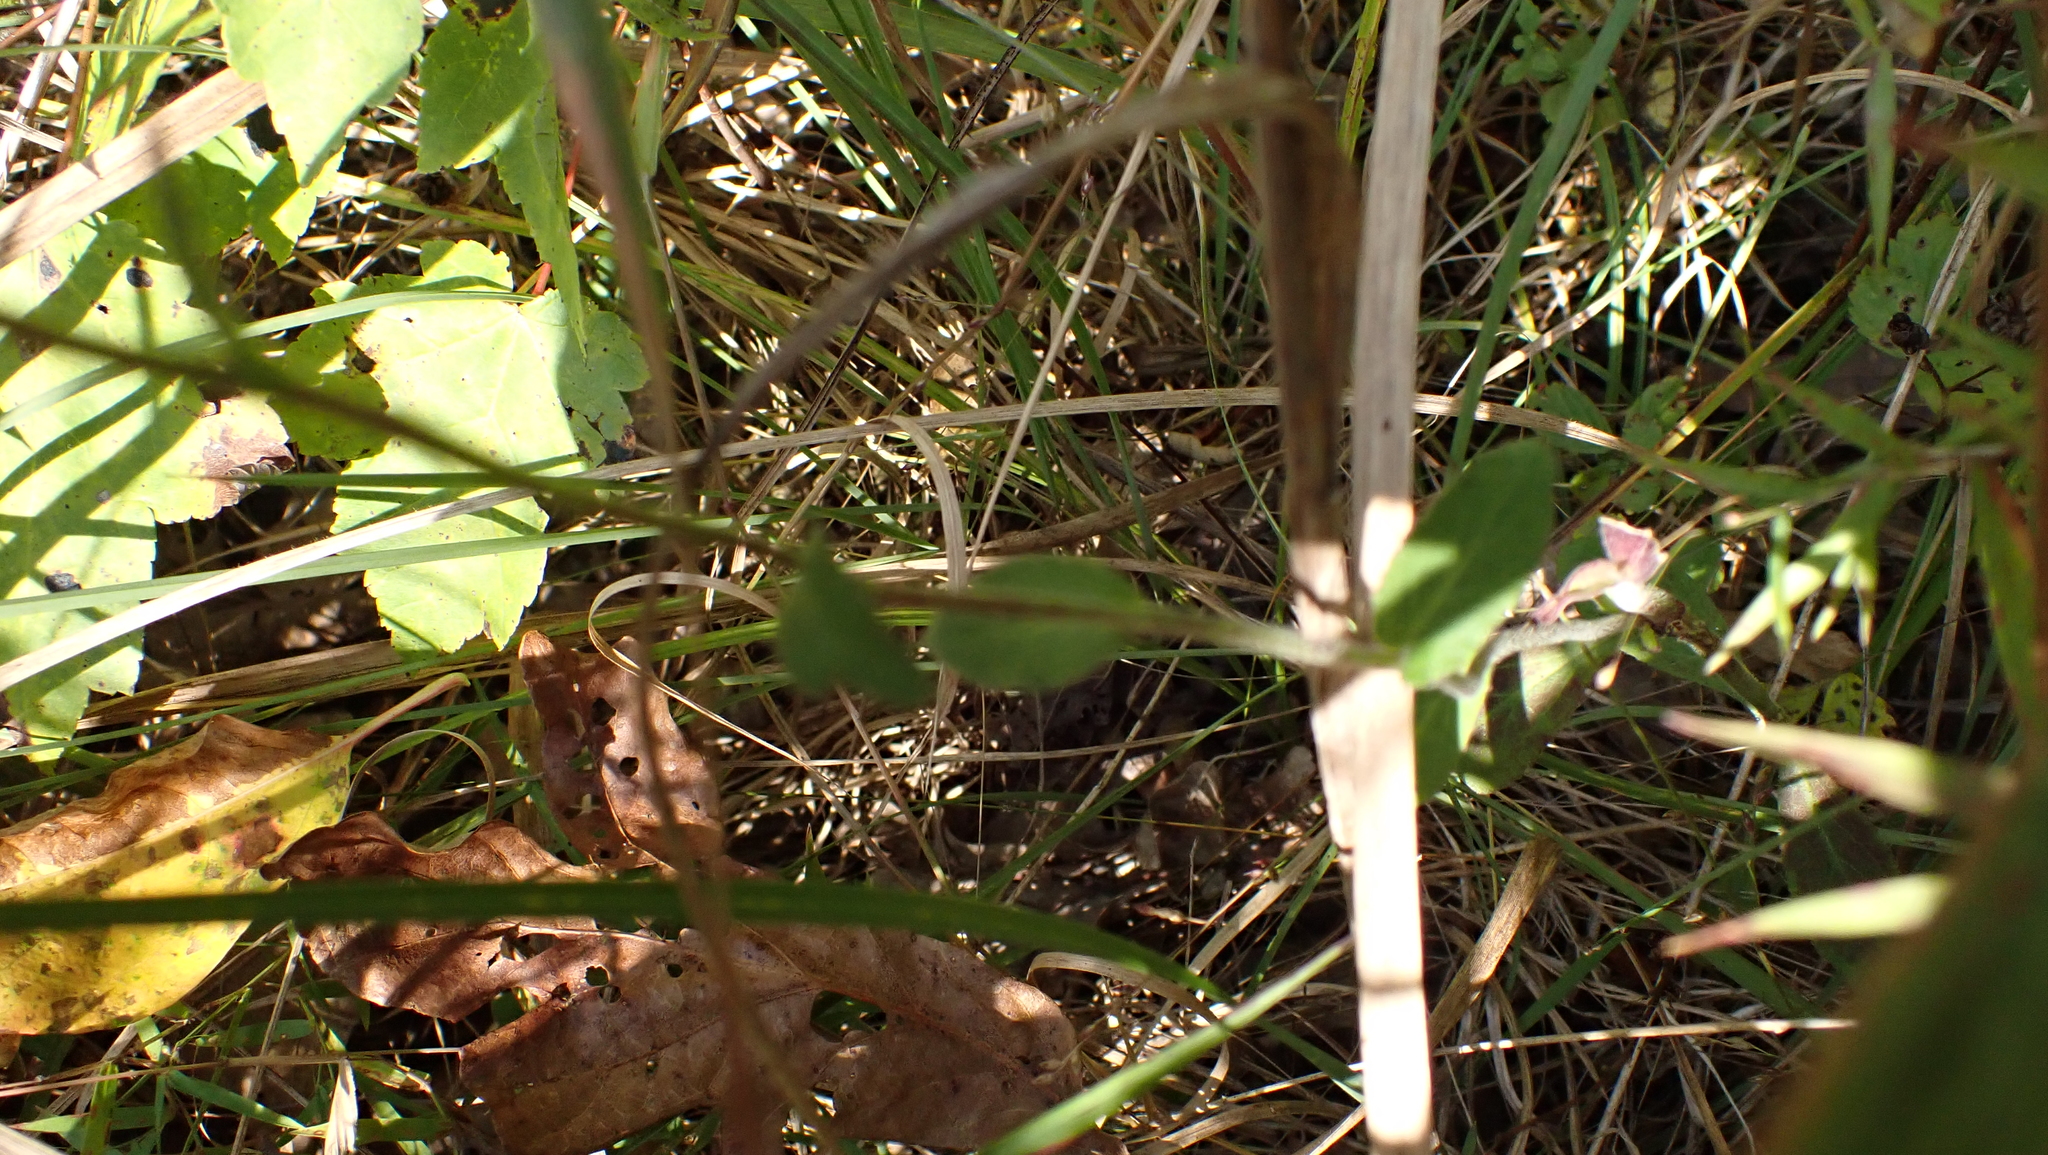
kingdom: Plantae
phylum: Tracheophyta
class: Magnoliopsida
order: Asterales
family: Campanulaceae
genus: Lobelia
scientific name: Lobelia puberula
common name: Purple dewdrop
